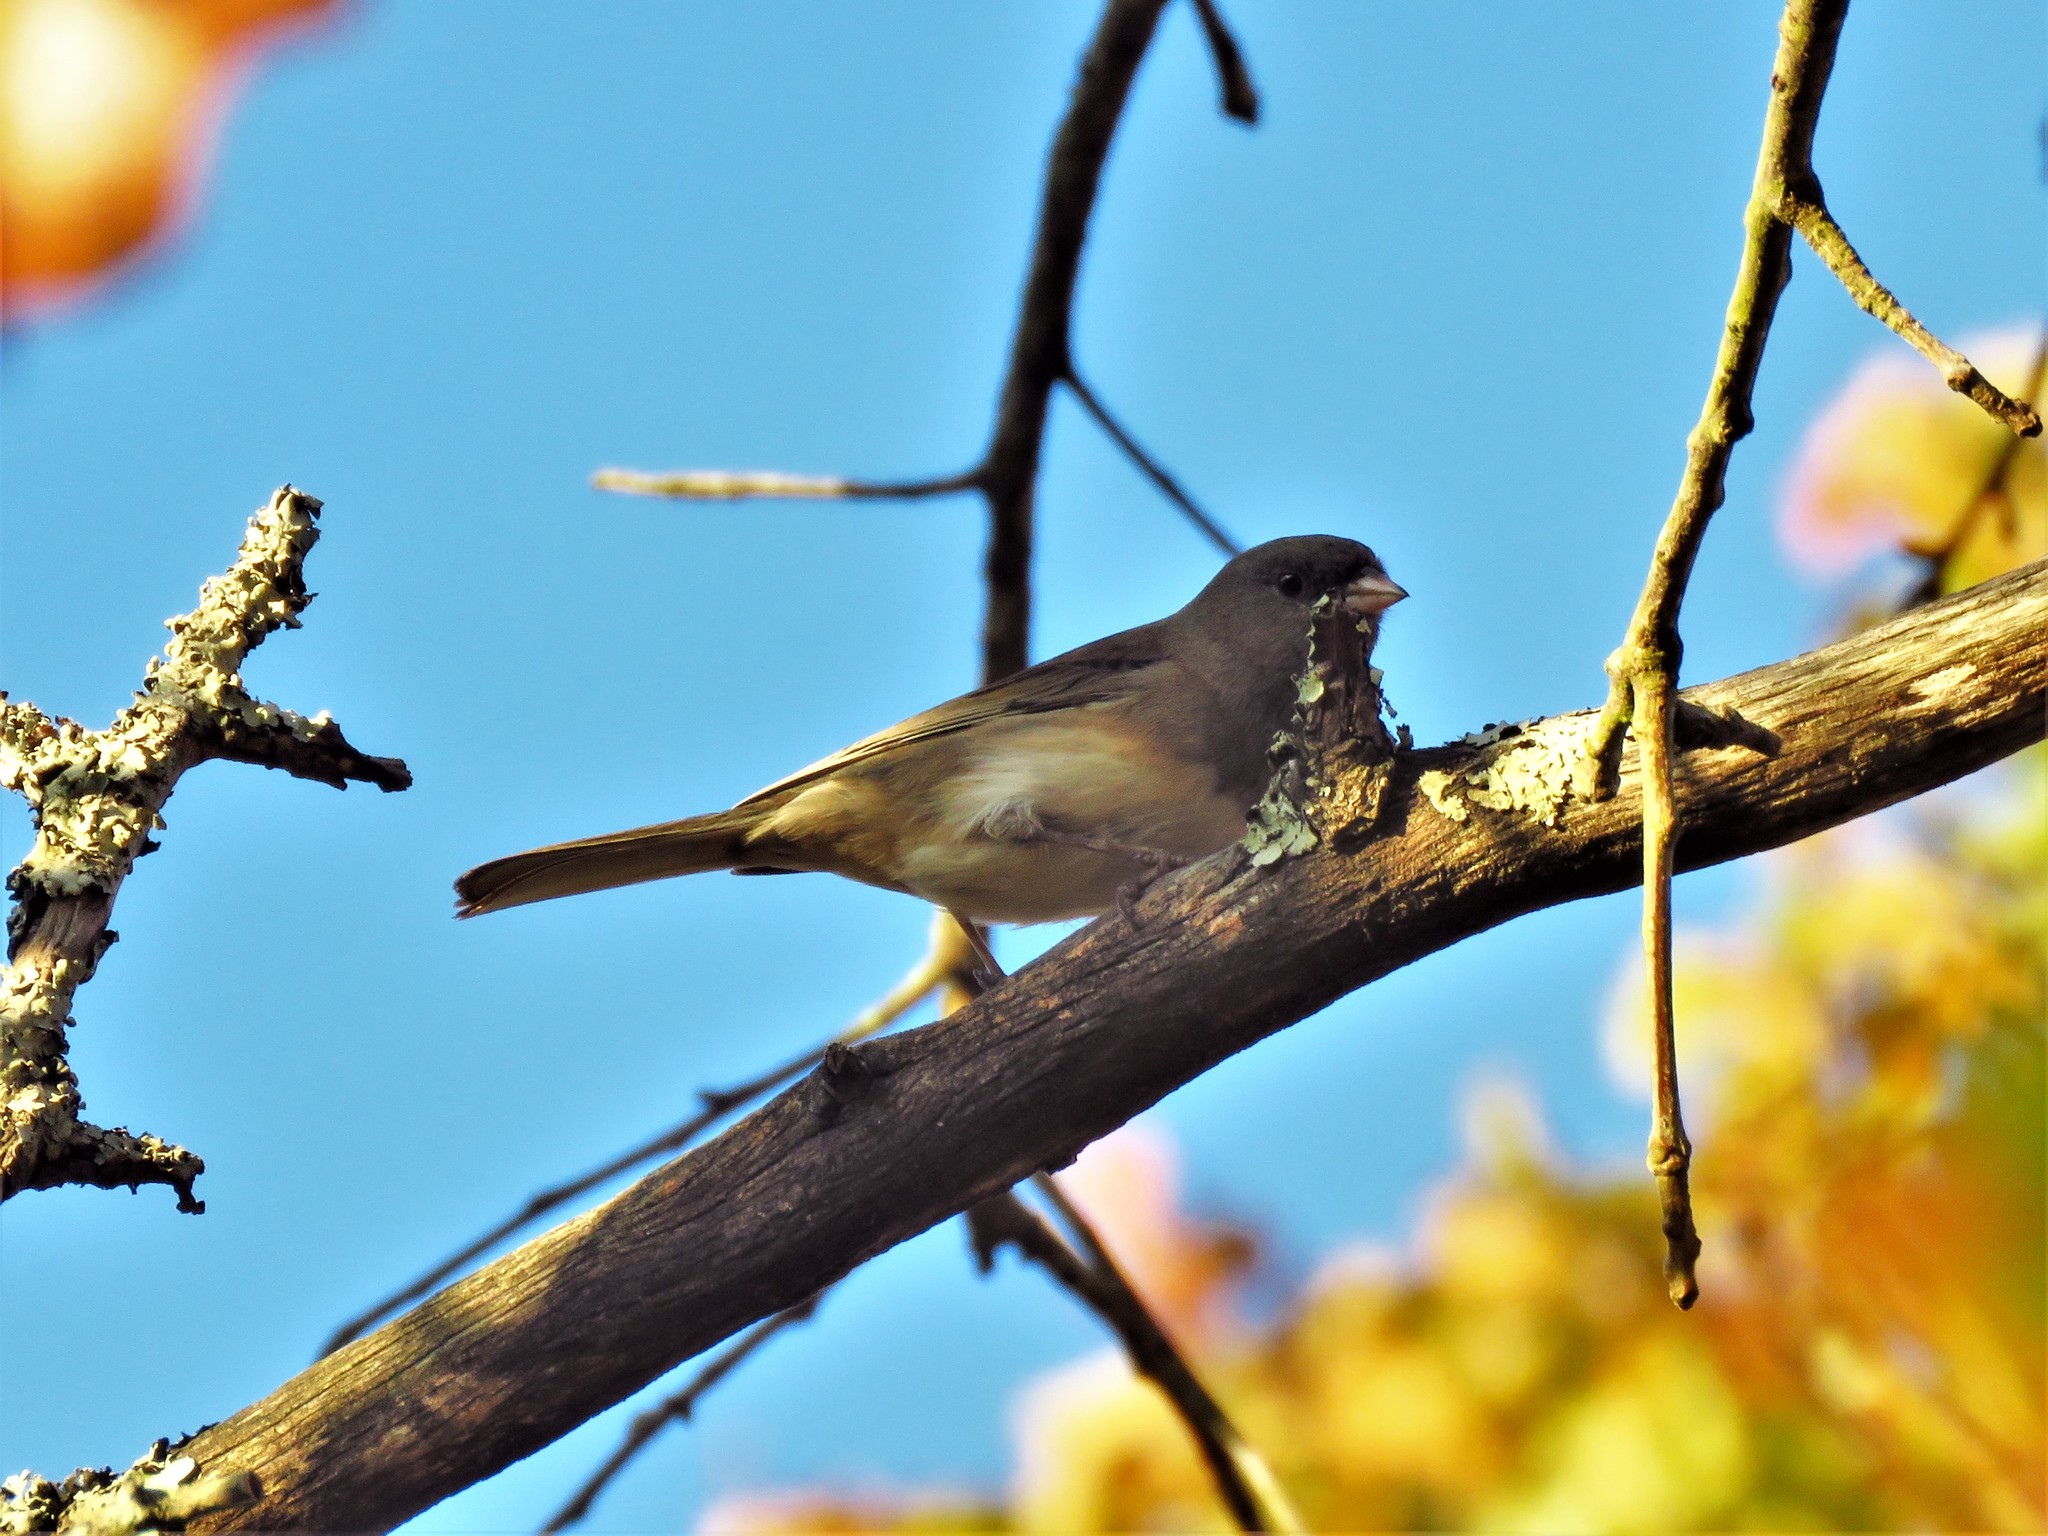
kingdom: Animalia
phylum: Chordata
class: Aves
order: Passeriformes
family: Passerellidae
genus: Junco
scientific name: Junco hyemalis
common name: Dark-eyed junco
